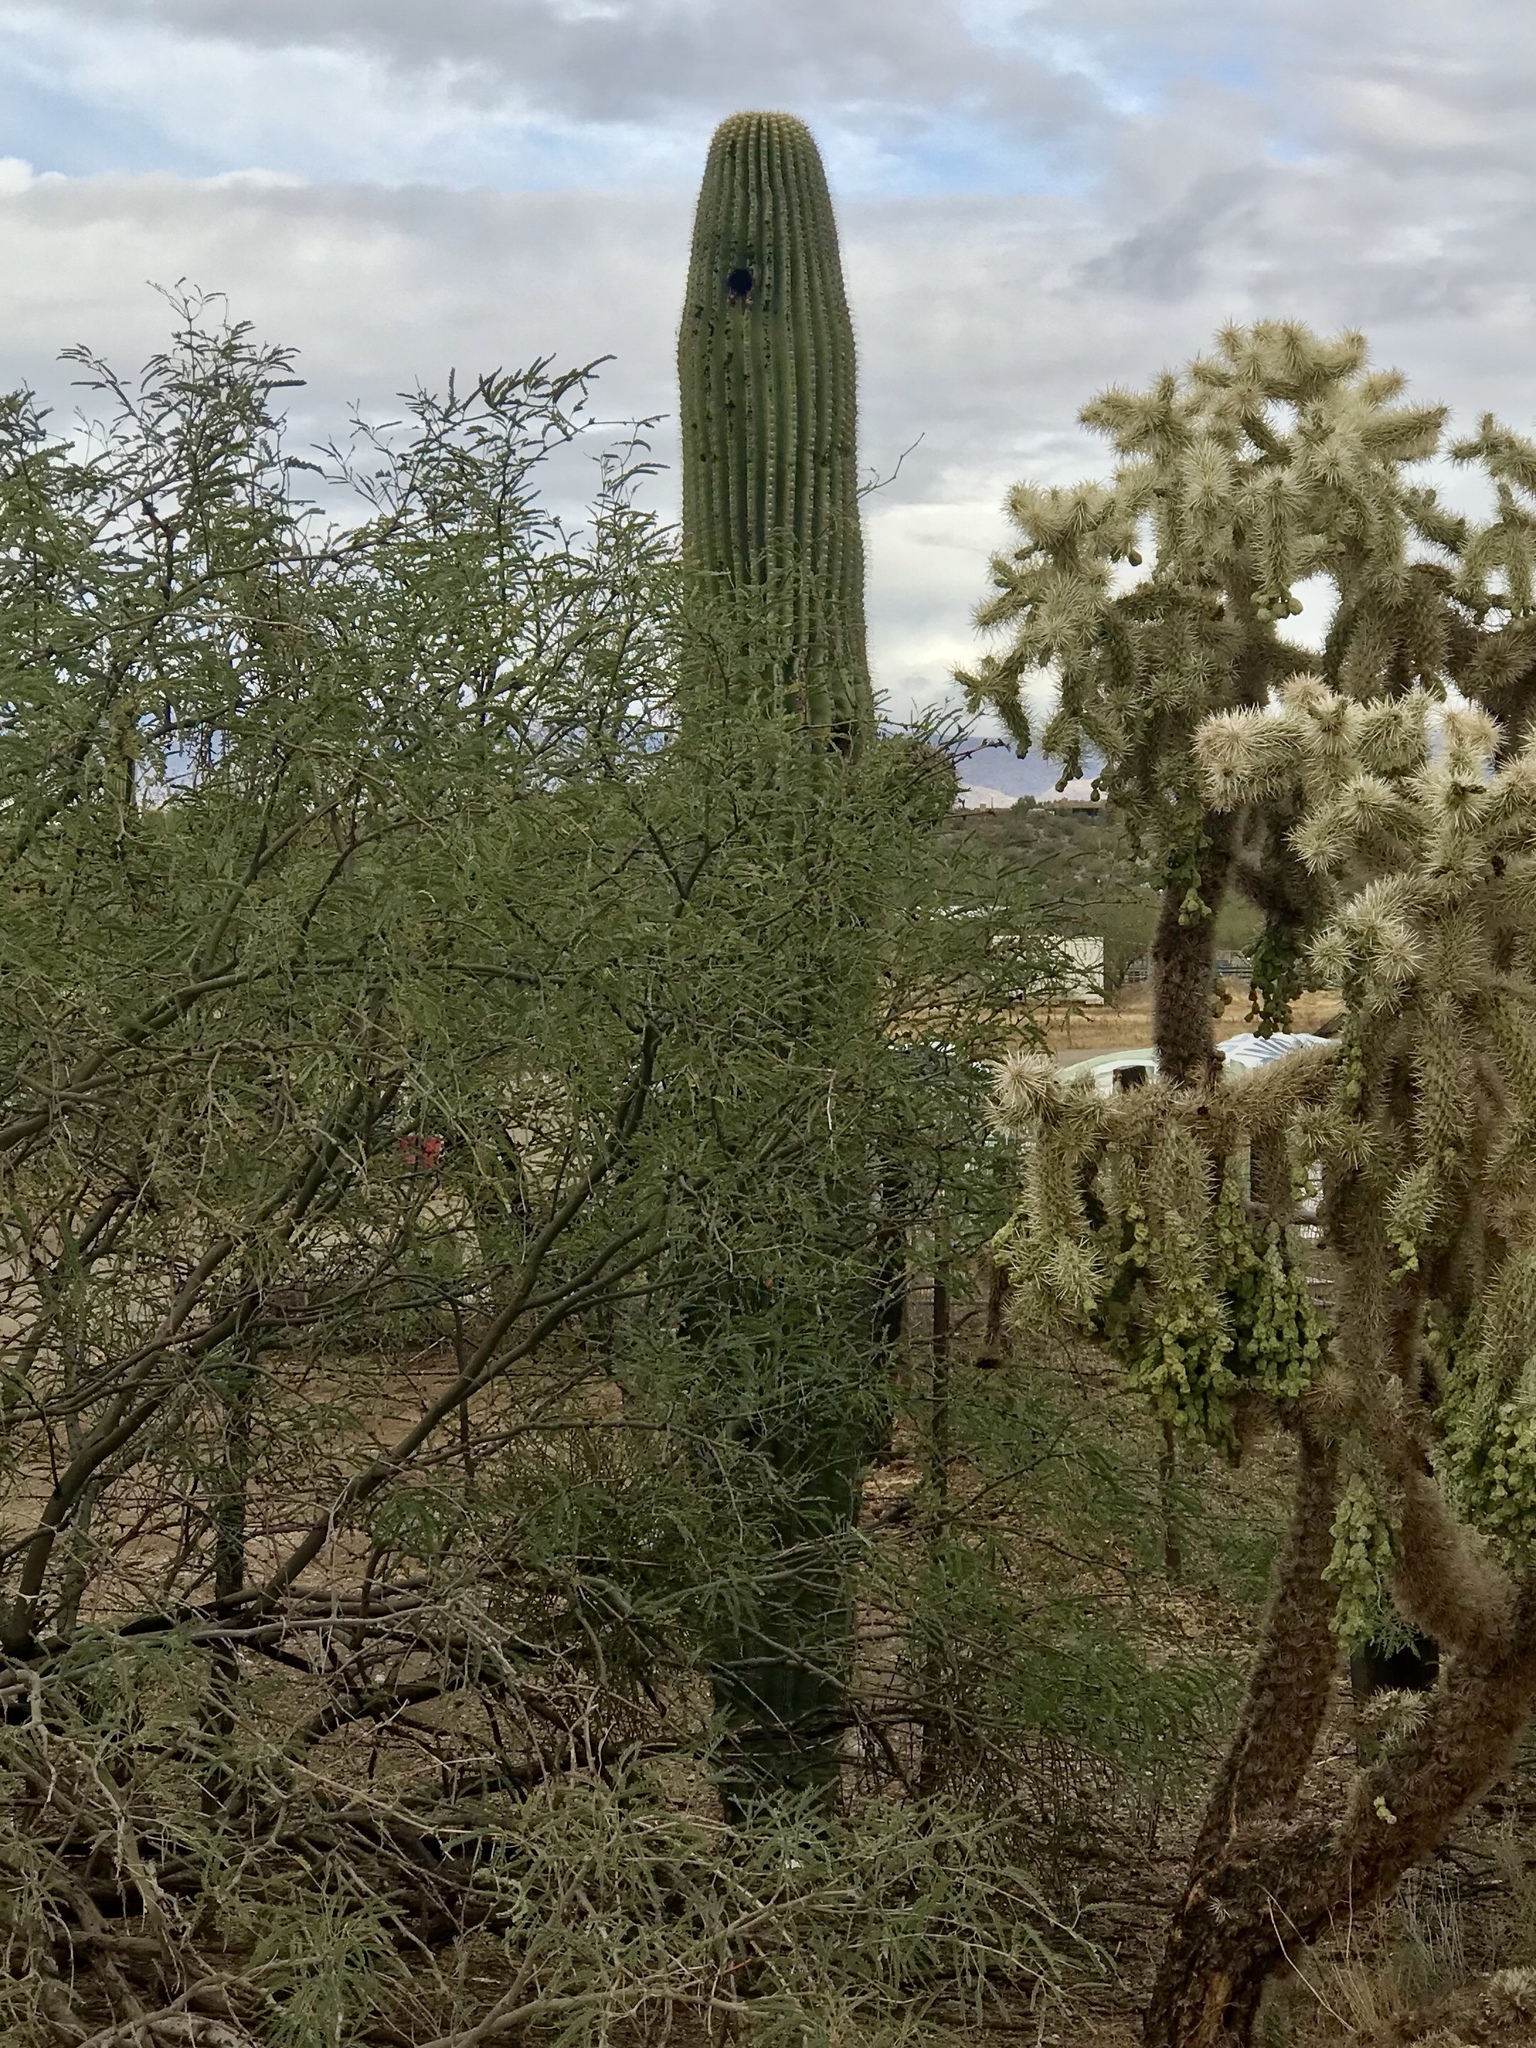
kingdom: Plantae
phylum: Tracheophyta
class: Magnoliopsida
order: Caryophyllales
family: Cactaceae
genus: Carnegiea
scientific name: Carnegiea gigantea
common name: Saguaro
